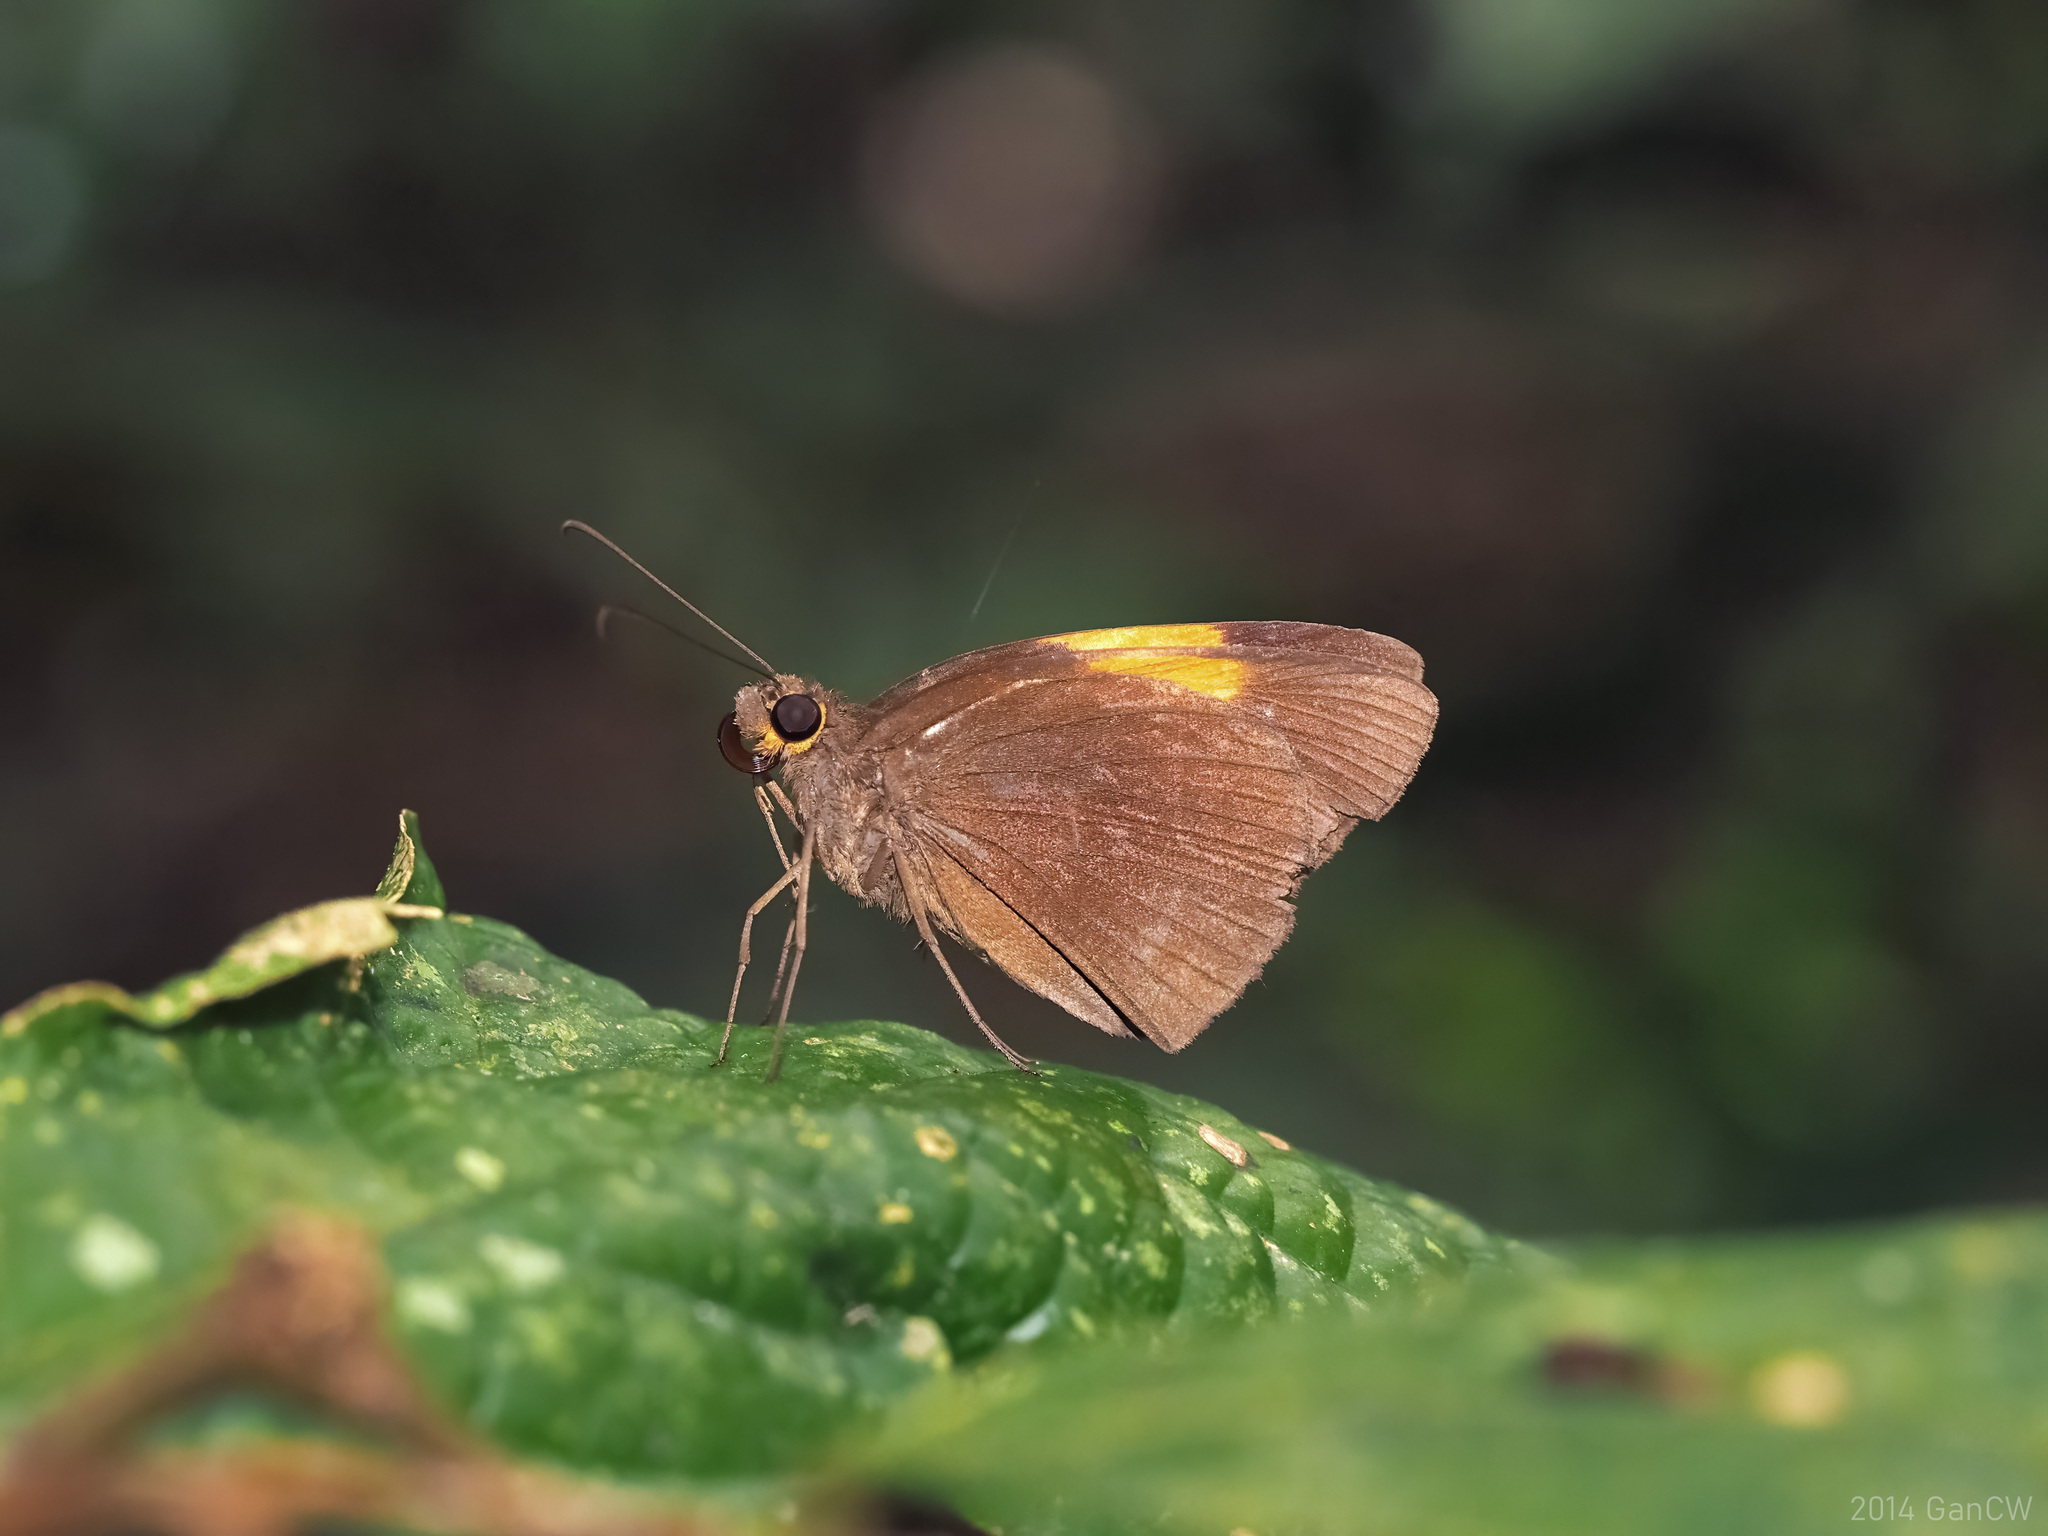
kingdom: Animalia
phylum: Arthropoda
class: Insecta
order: Lepidoptera
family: Hesperiidae
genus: Ancistroides
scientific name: Ancistroides armatus
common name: Red demon
